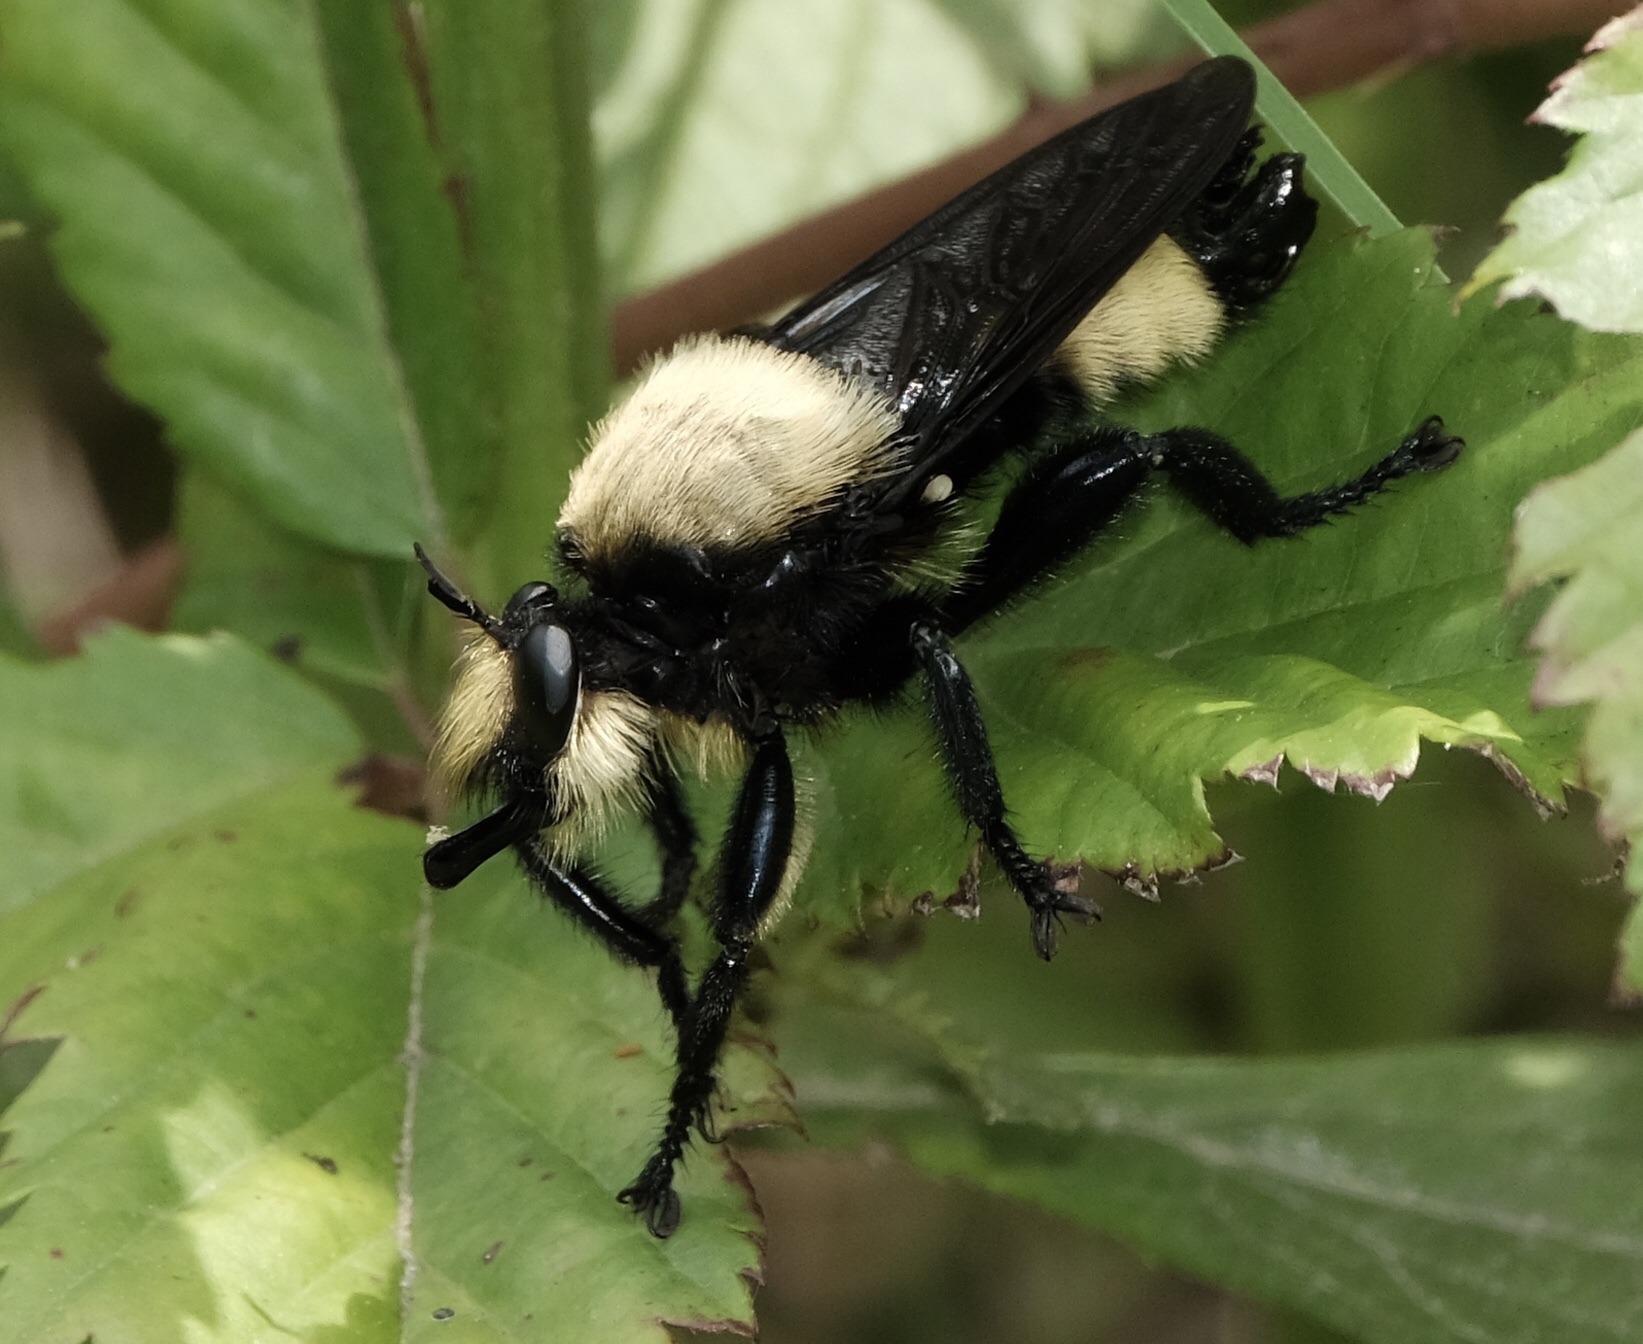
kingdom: Animalia
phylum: Arthropoda
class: Insecta
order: Diptera
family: Asilidae
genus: Laphria
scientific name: Laphria lata
